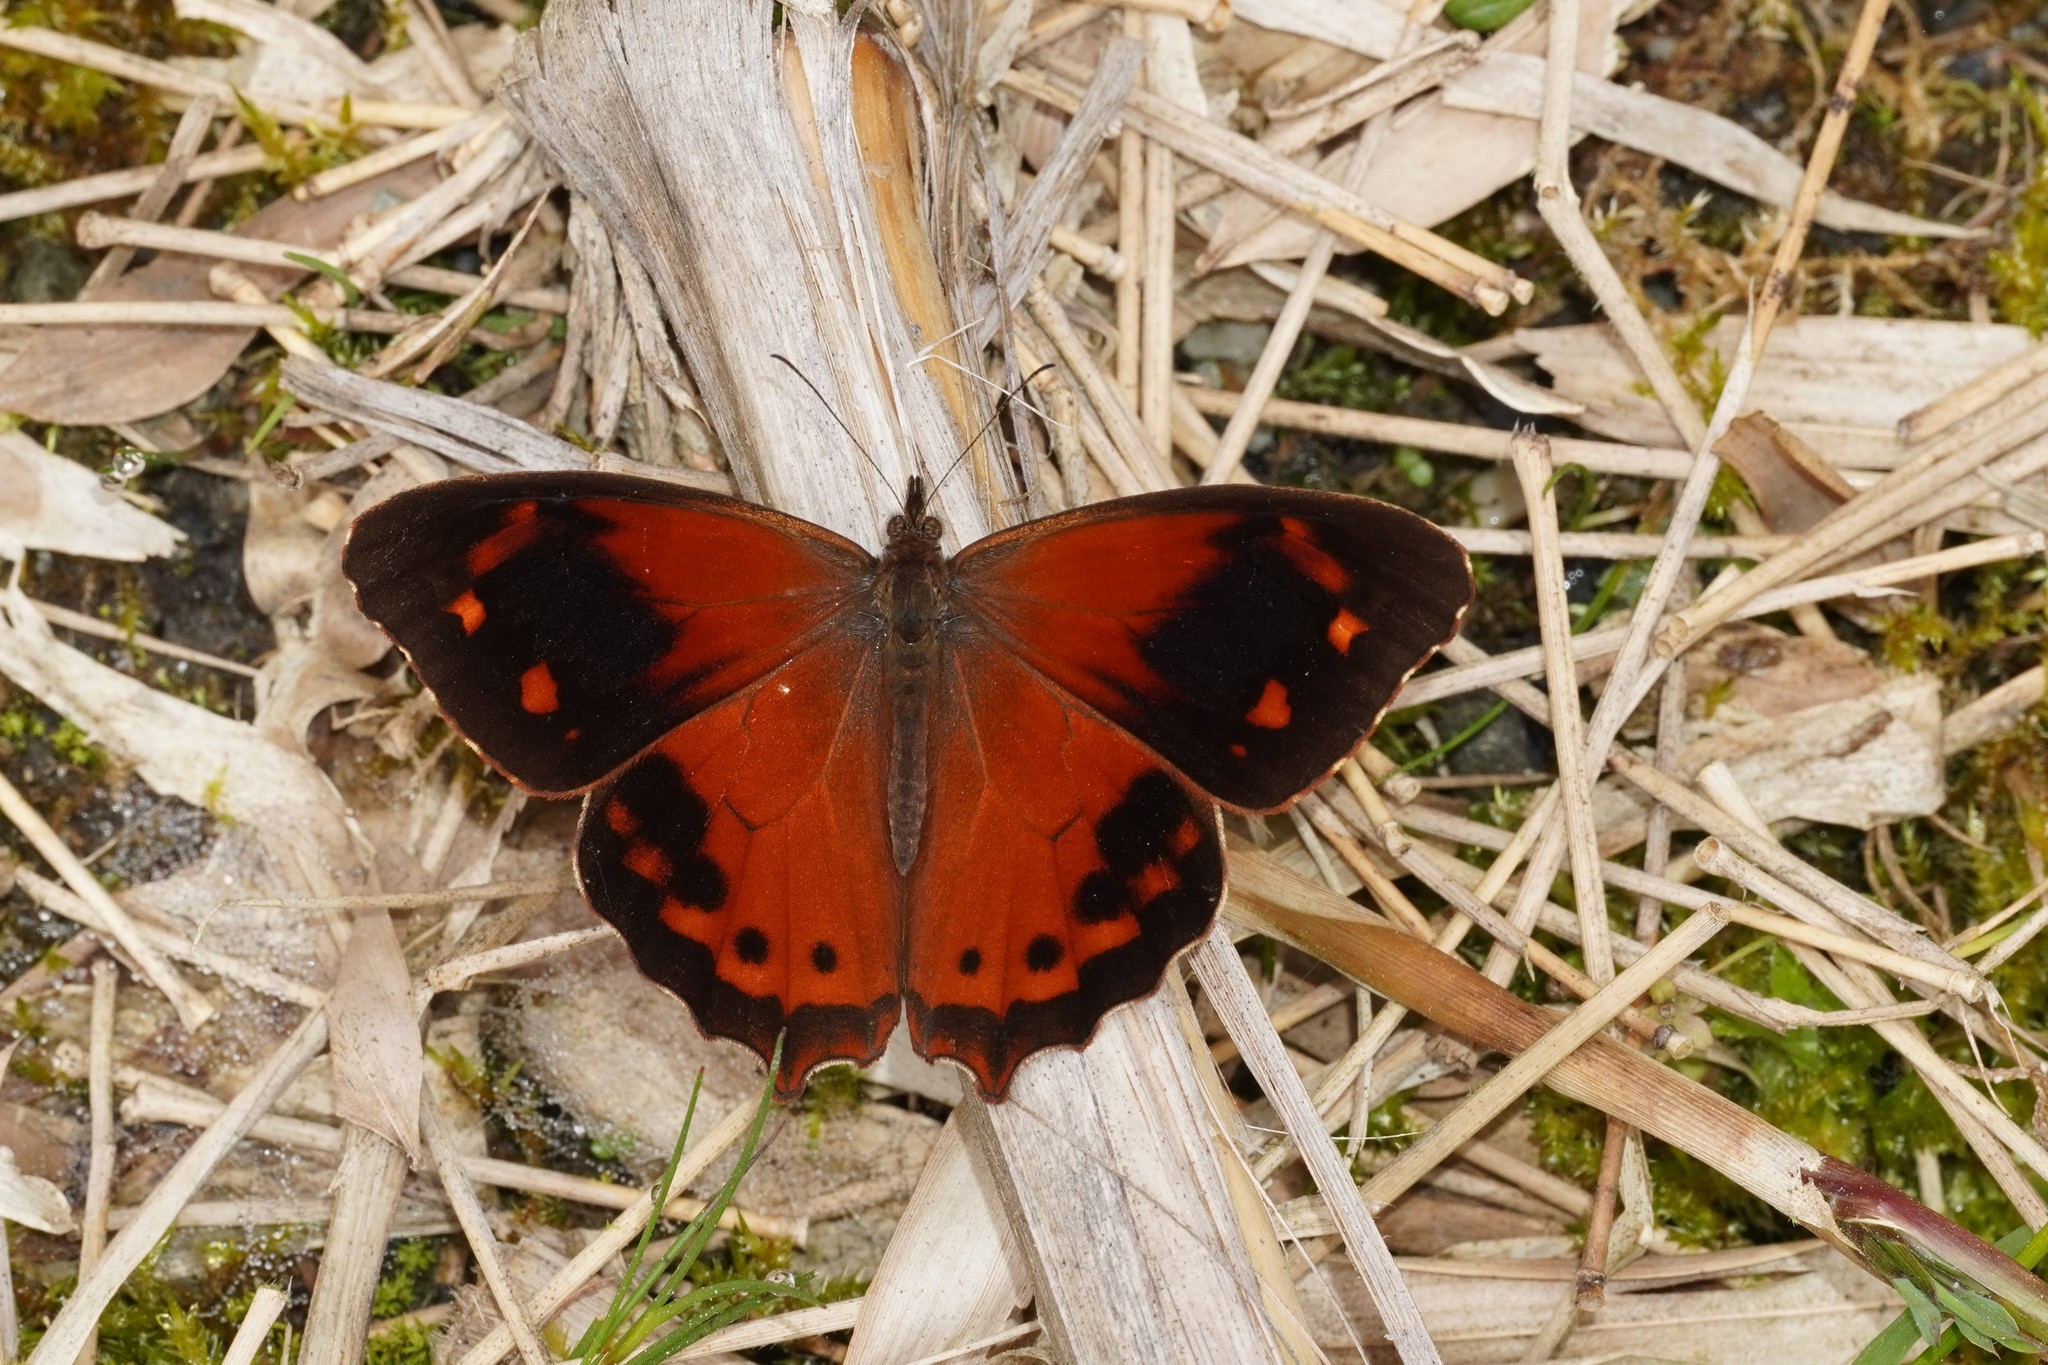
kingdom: Animalia
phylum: Arthropoda
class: Insecta
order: Lepidoptera
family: Nymphalidae
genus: Lasiophila
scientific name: Lasiophila orbifera
